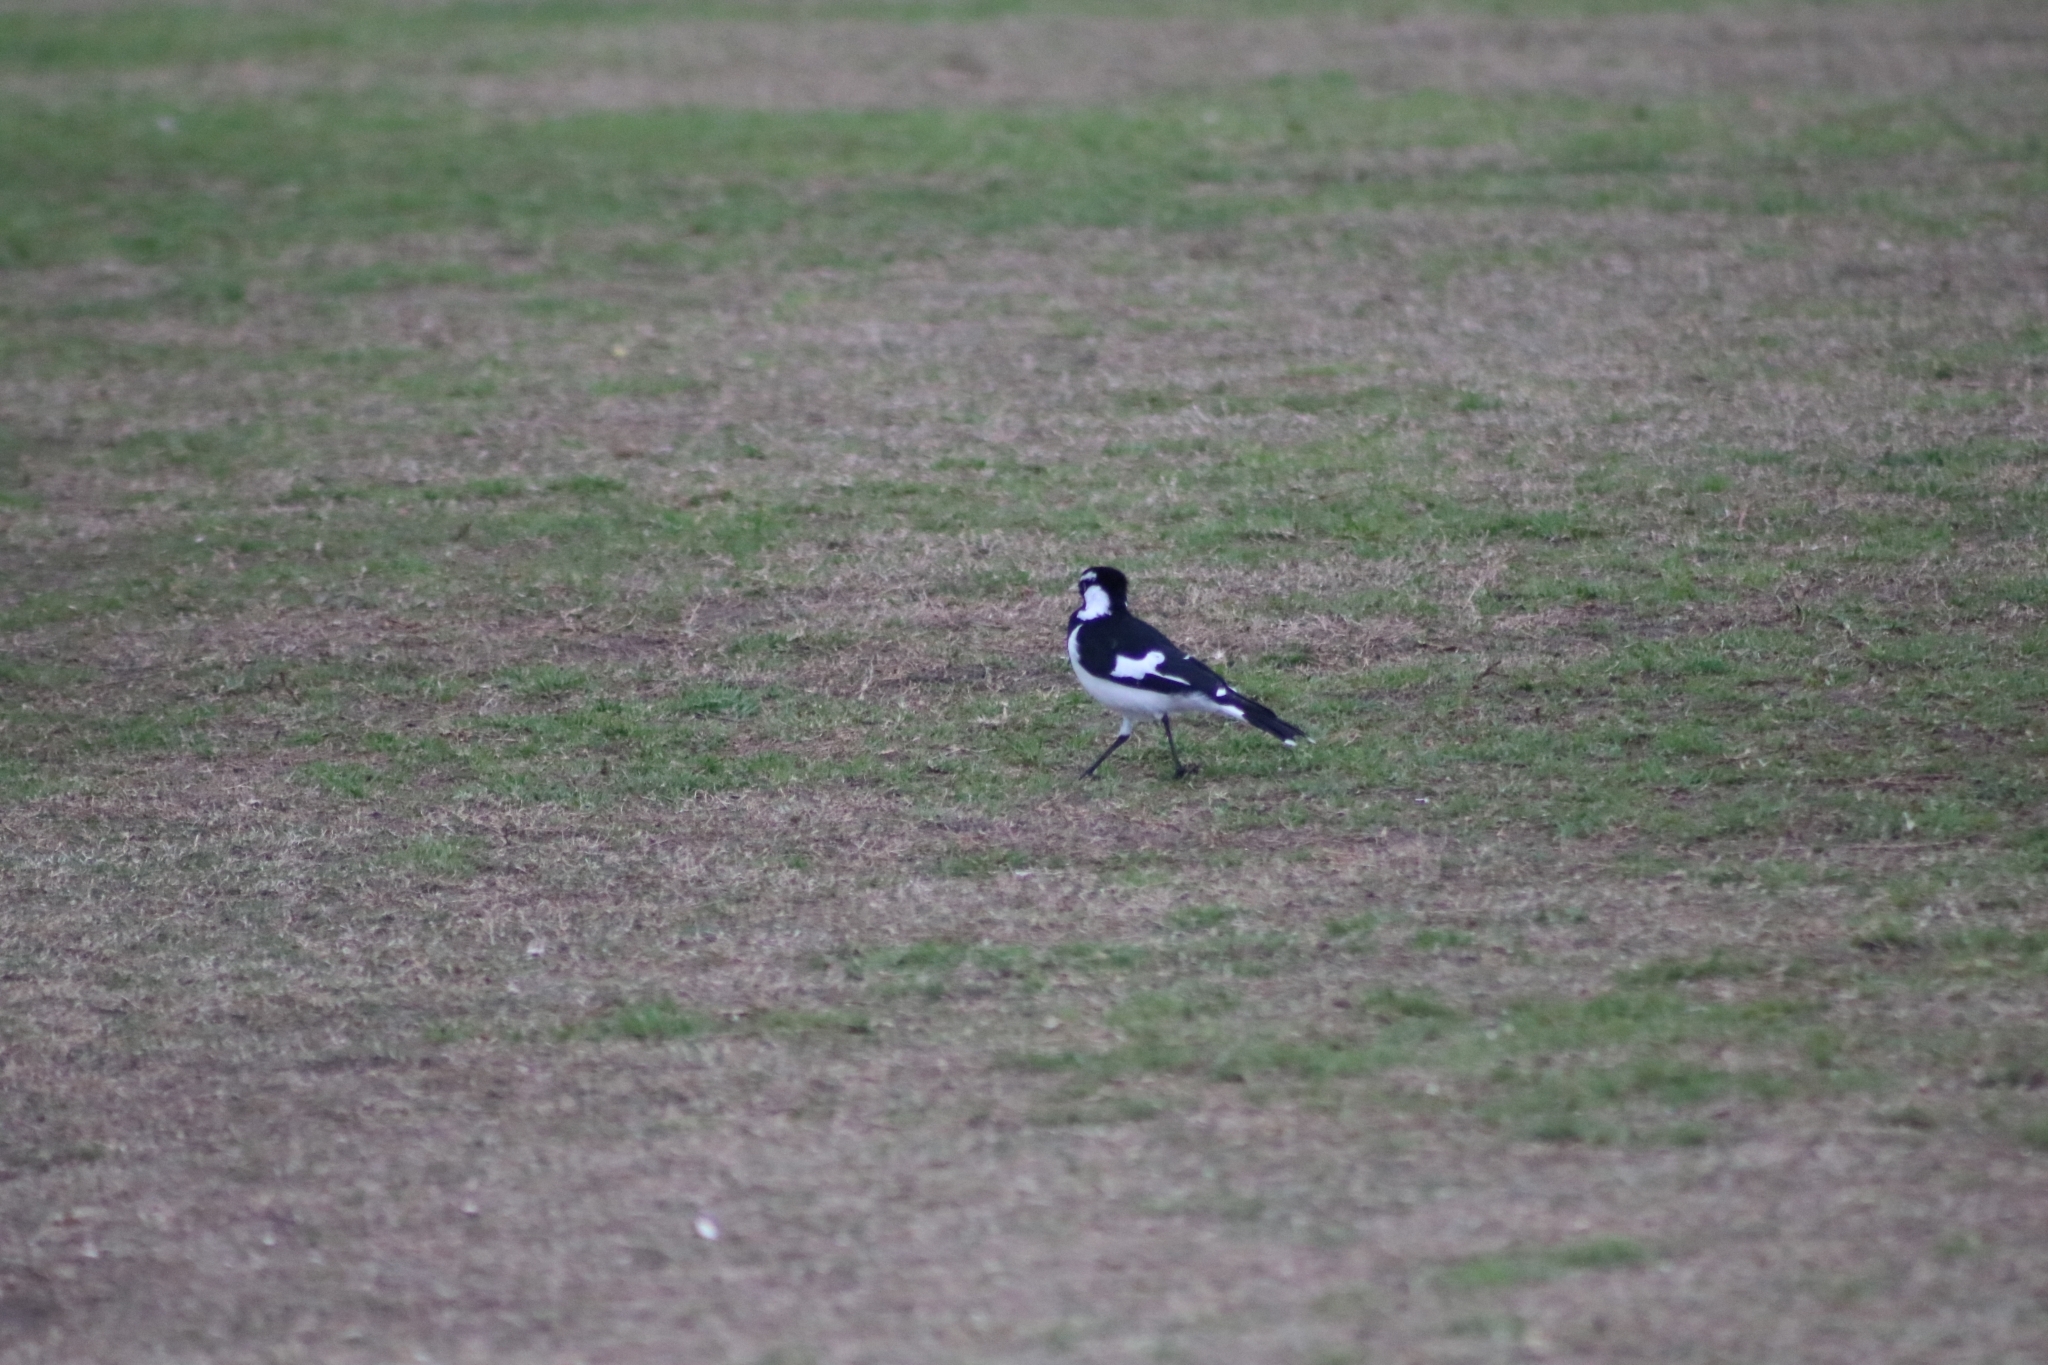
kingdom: Animalia
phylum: Chordata
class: Aves
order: Passeriformes
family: Monarchidae
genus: Grallina
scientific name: Grallina cyanoleuca
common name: Magpie-lark
